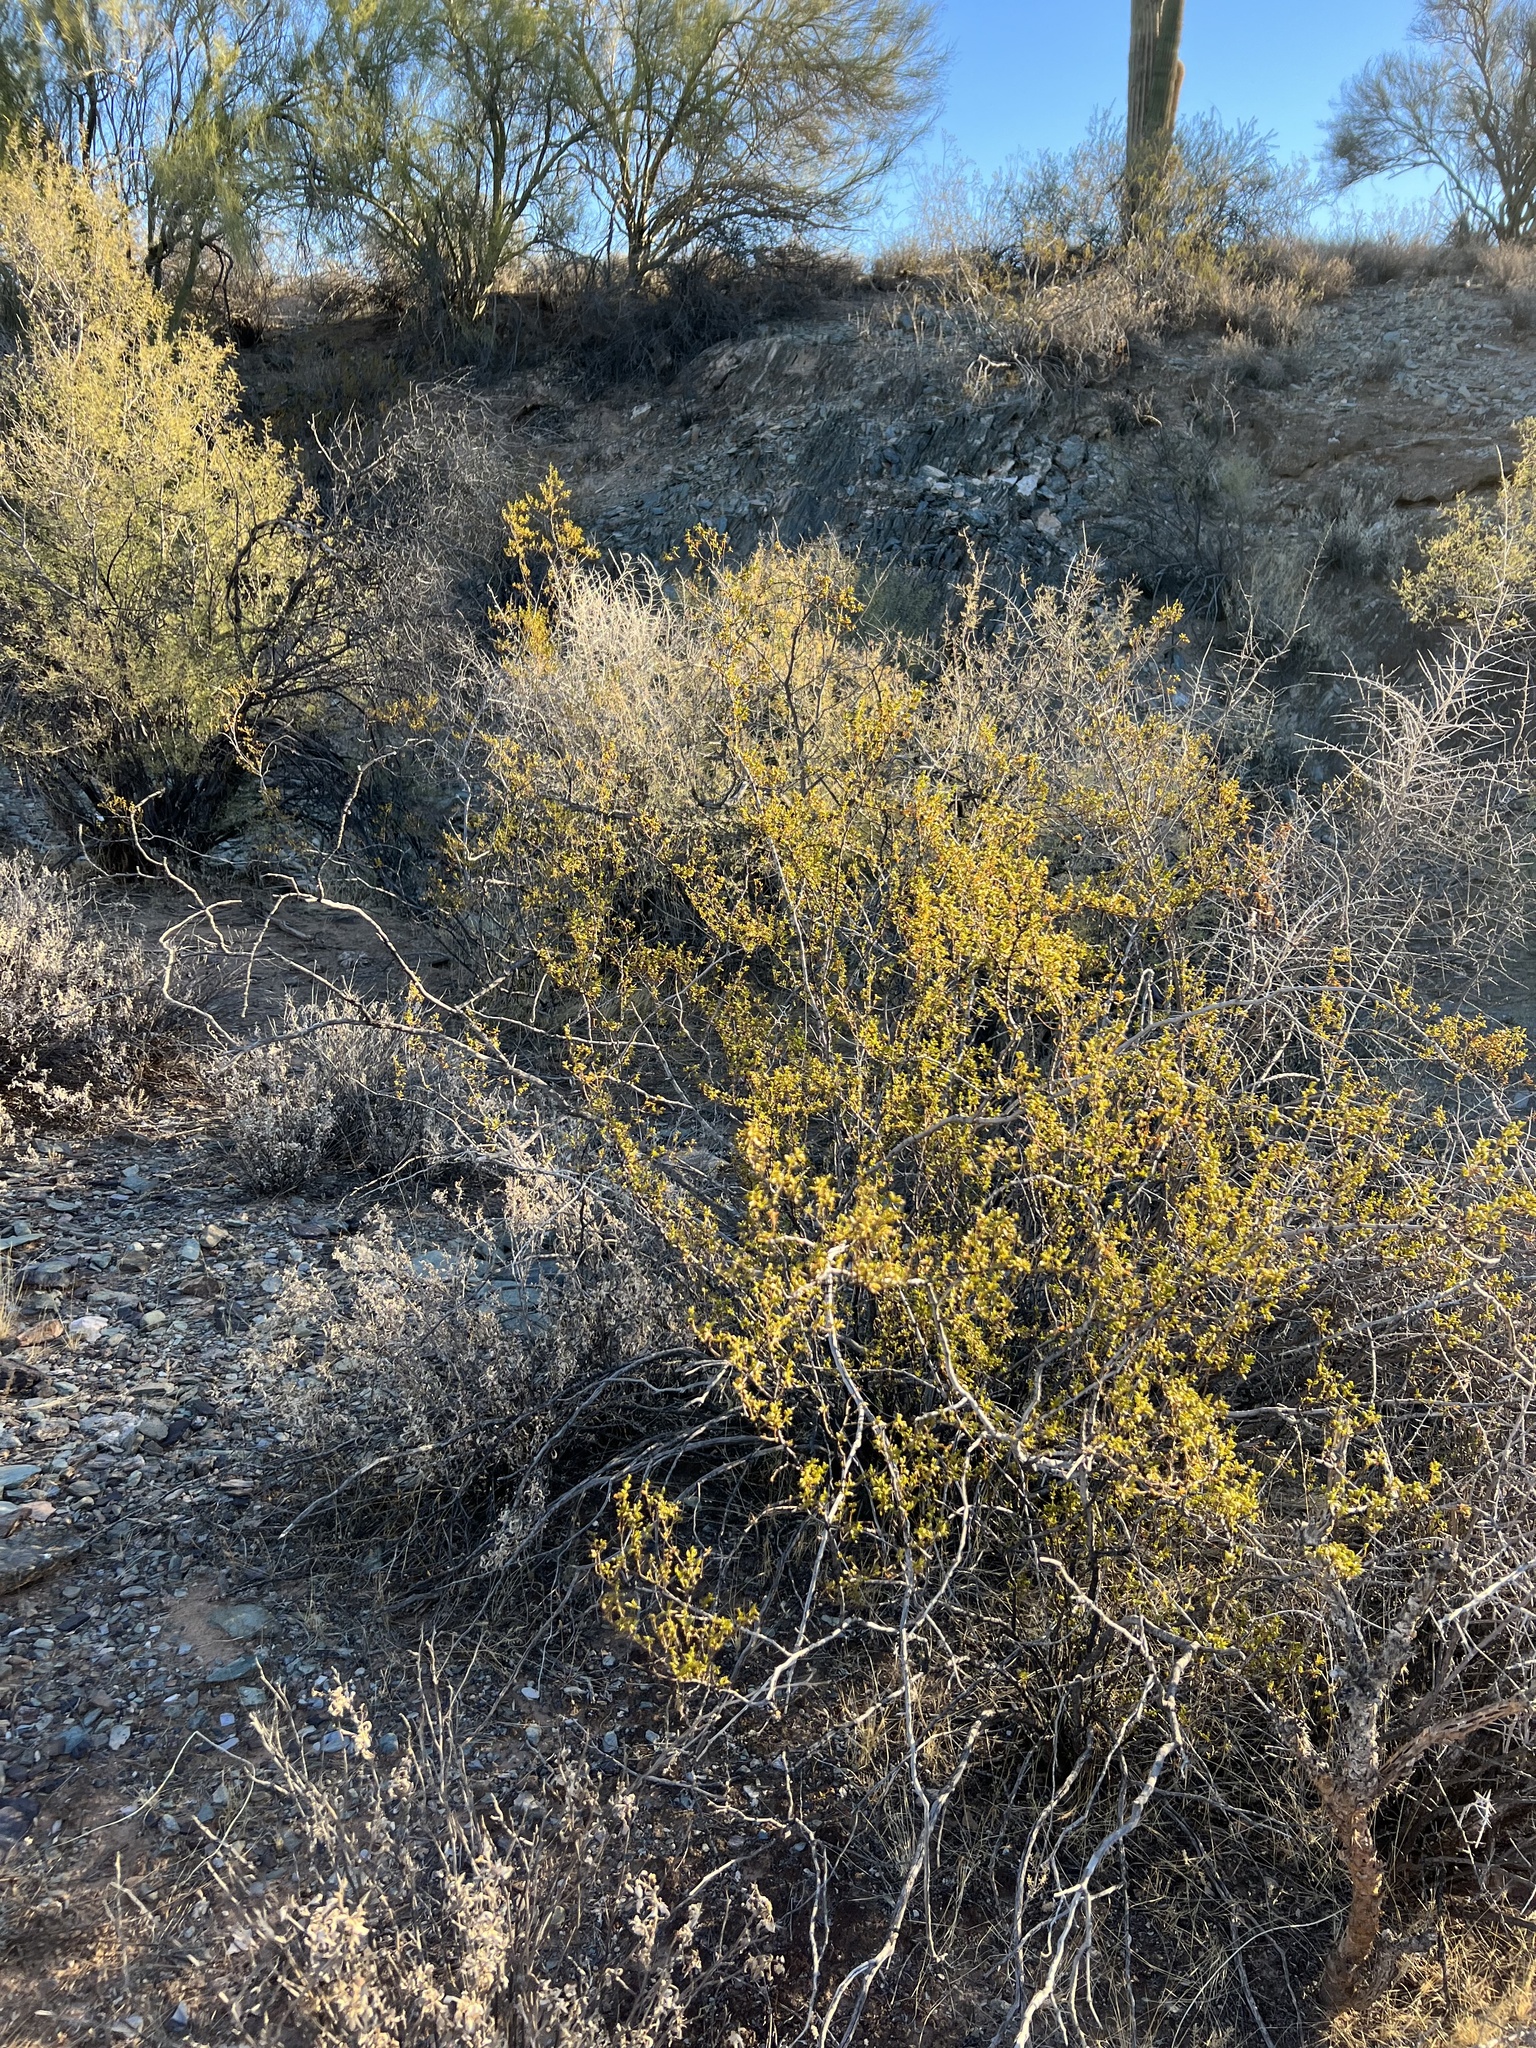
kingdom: Plantae
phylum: Tracheophyta
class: Magnoliopsida
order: Zygophyllales
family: Zygophyllaceae
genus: Larrea
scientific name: Larrea tridentata
